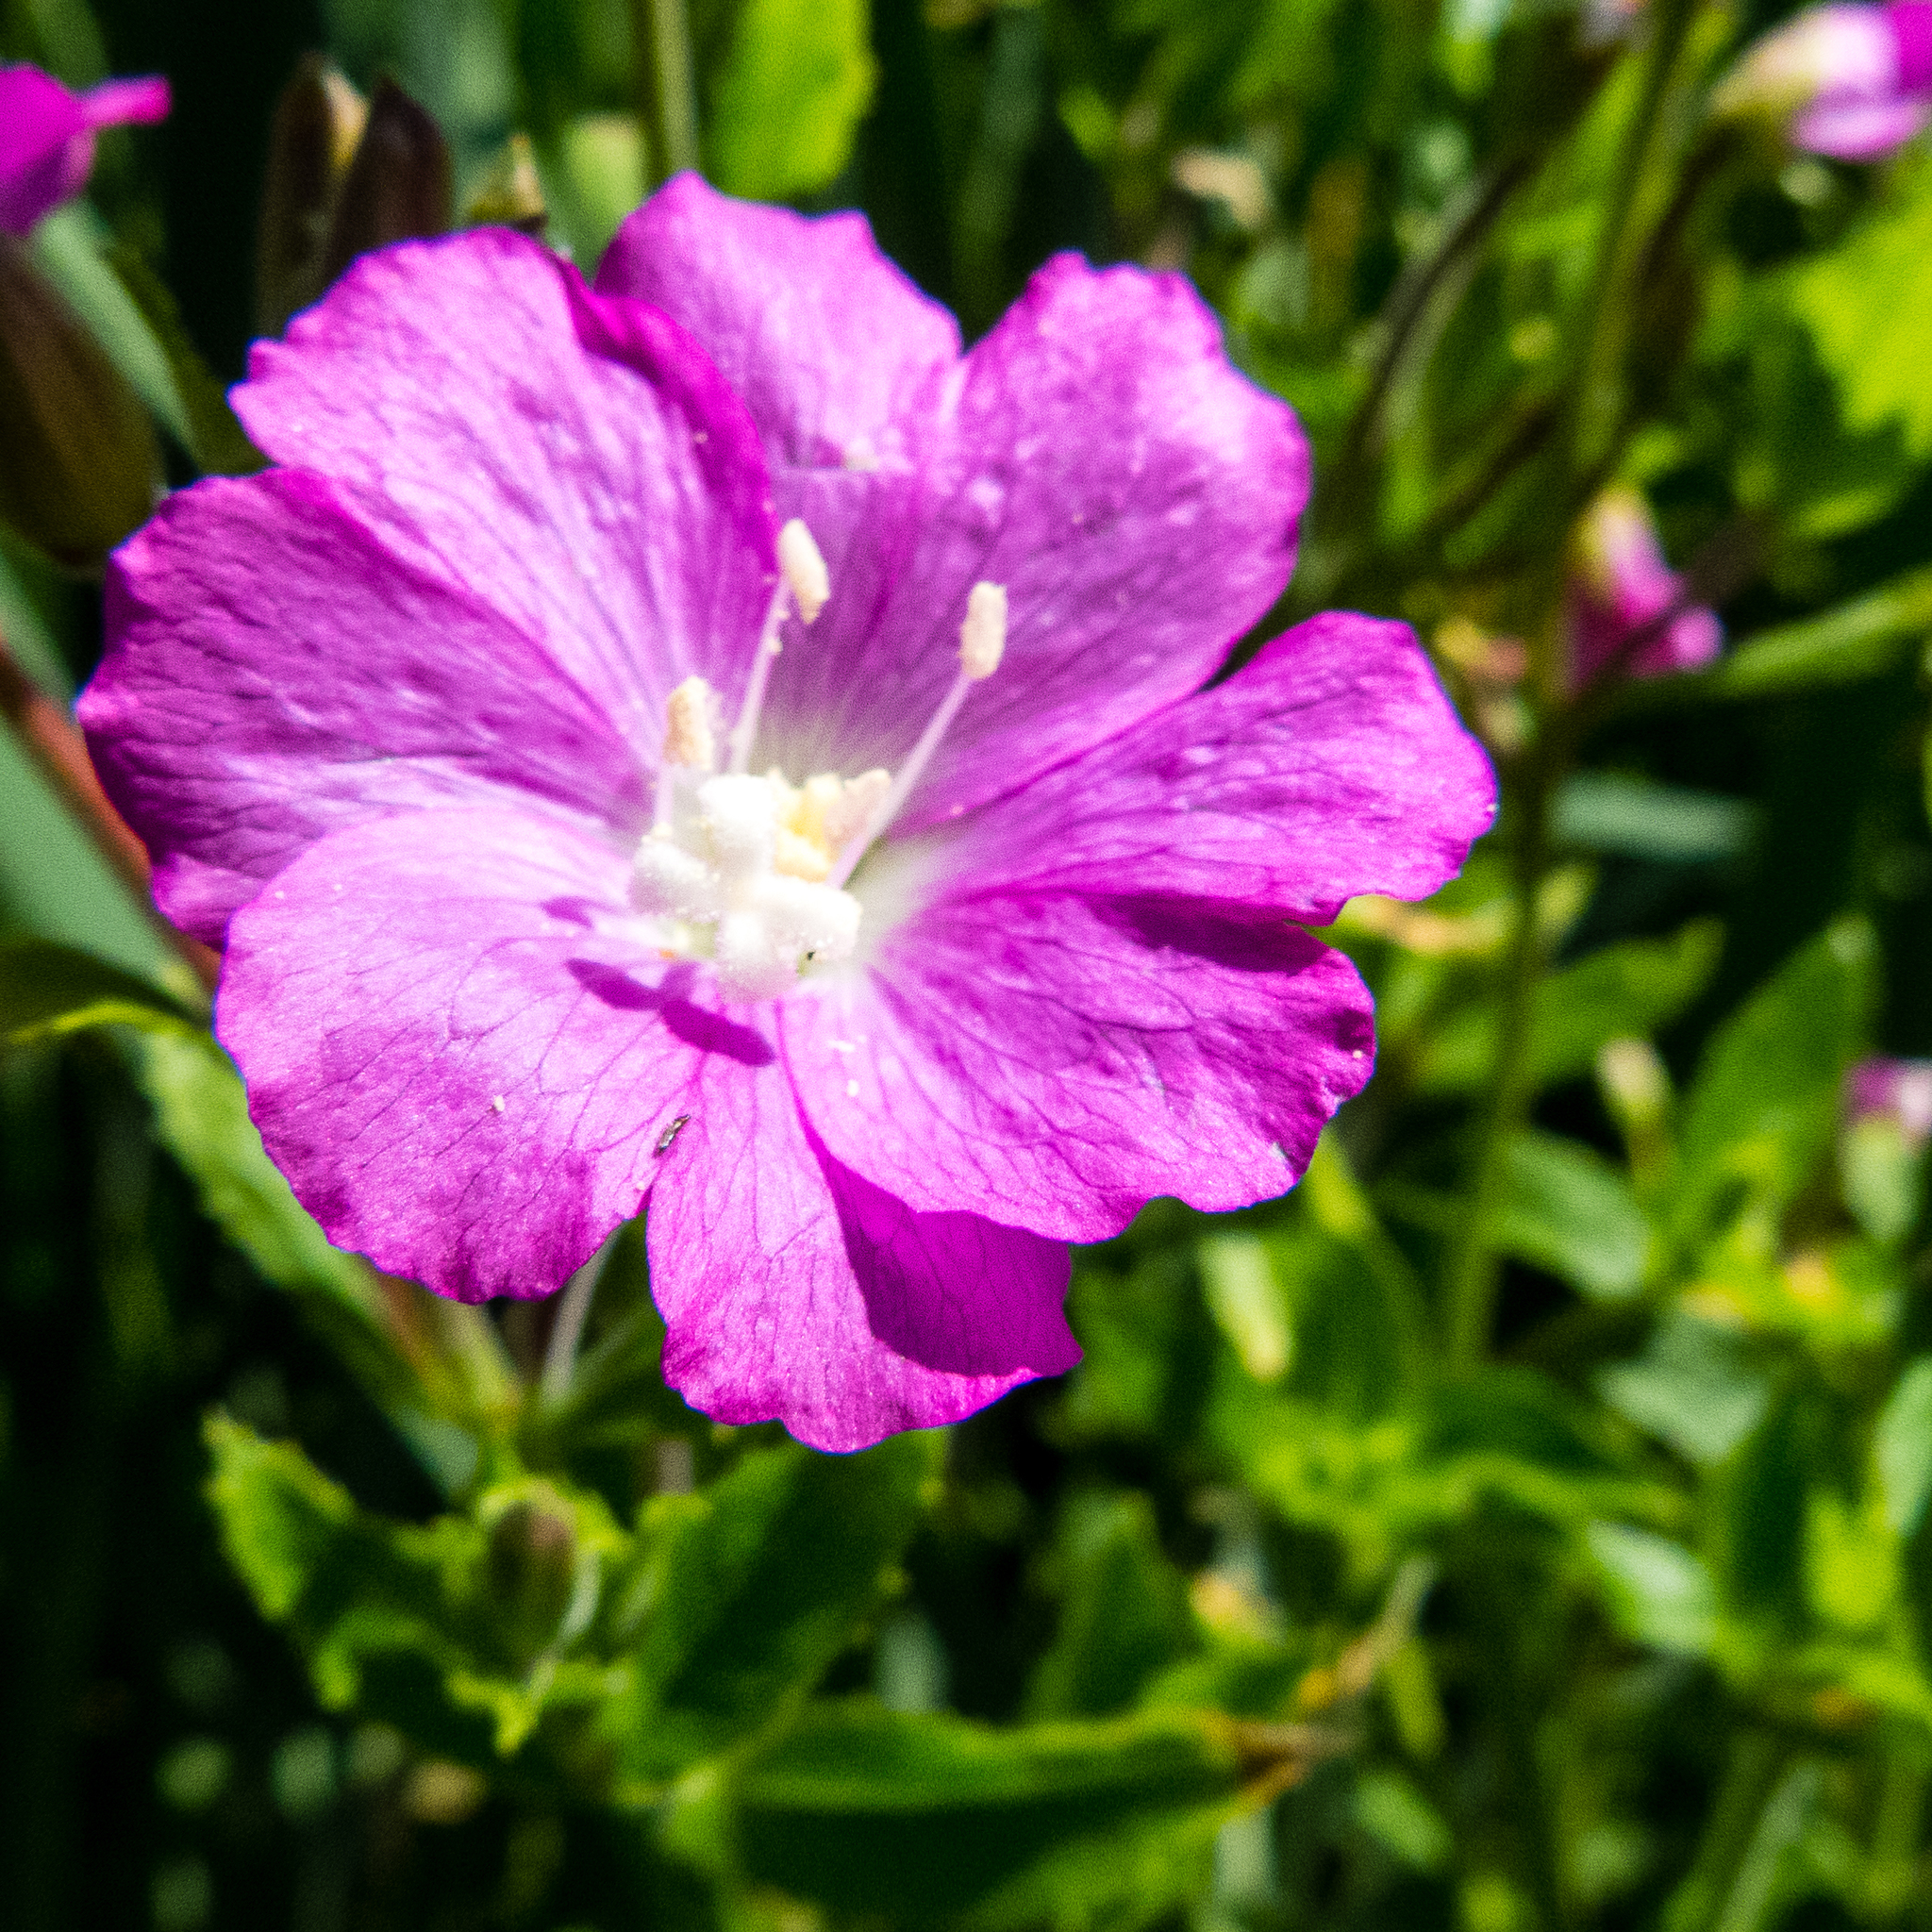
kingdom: Plantae
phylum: Tracheophyta
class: Magnoliopsida
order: Myrtales
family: Onagraceae
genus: Epilobium
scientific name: Epilobium hirsutum
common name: Great willowherb
